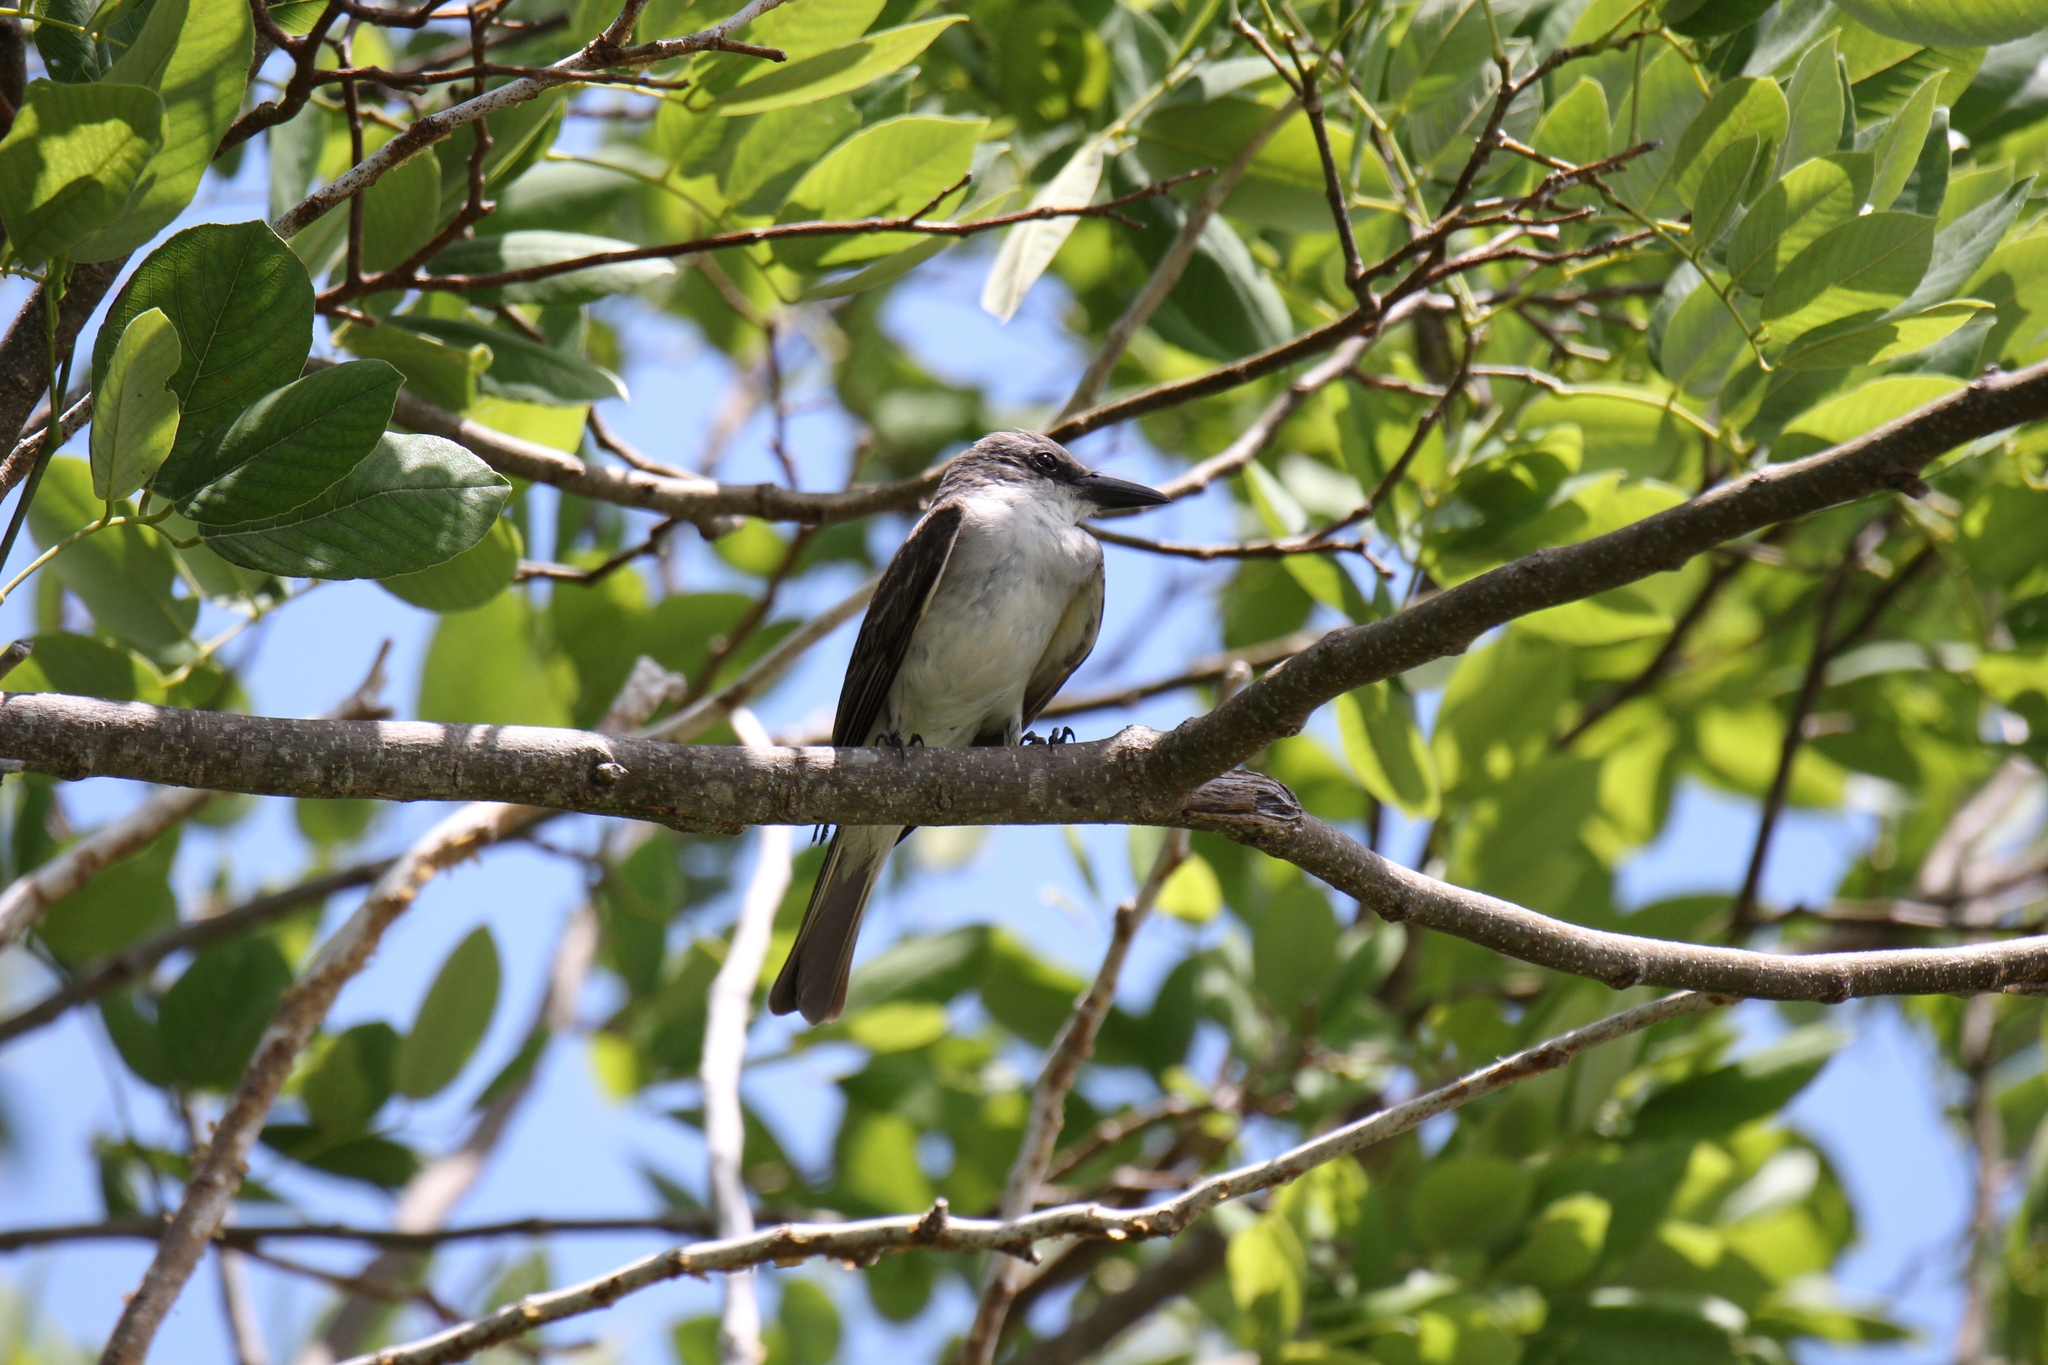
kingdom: Animalia
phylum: Chordata
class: Aves
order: Passeriformes
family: Tyrannidae
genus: Tyrannus
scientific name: Tyrannus dominicensis
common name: Gray kingbird
